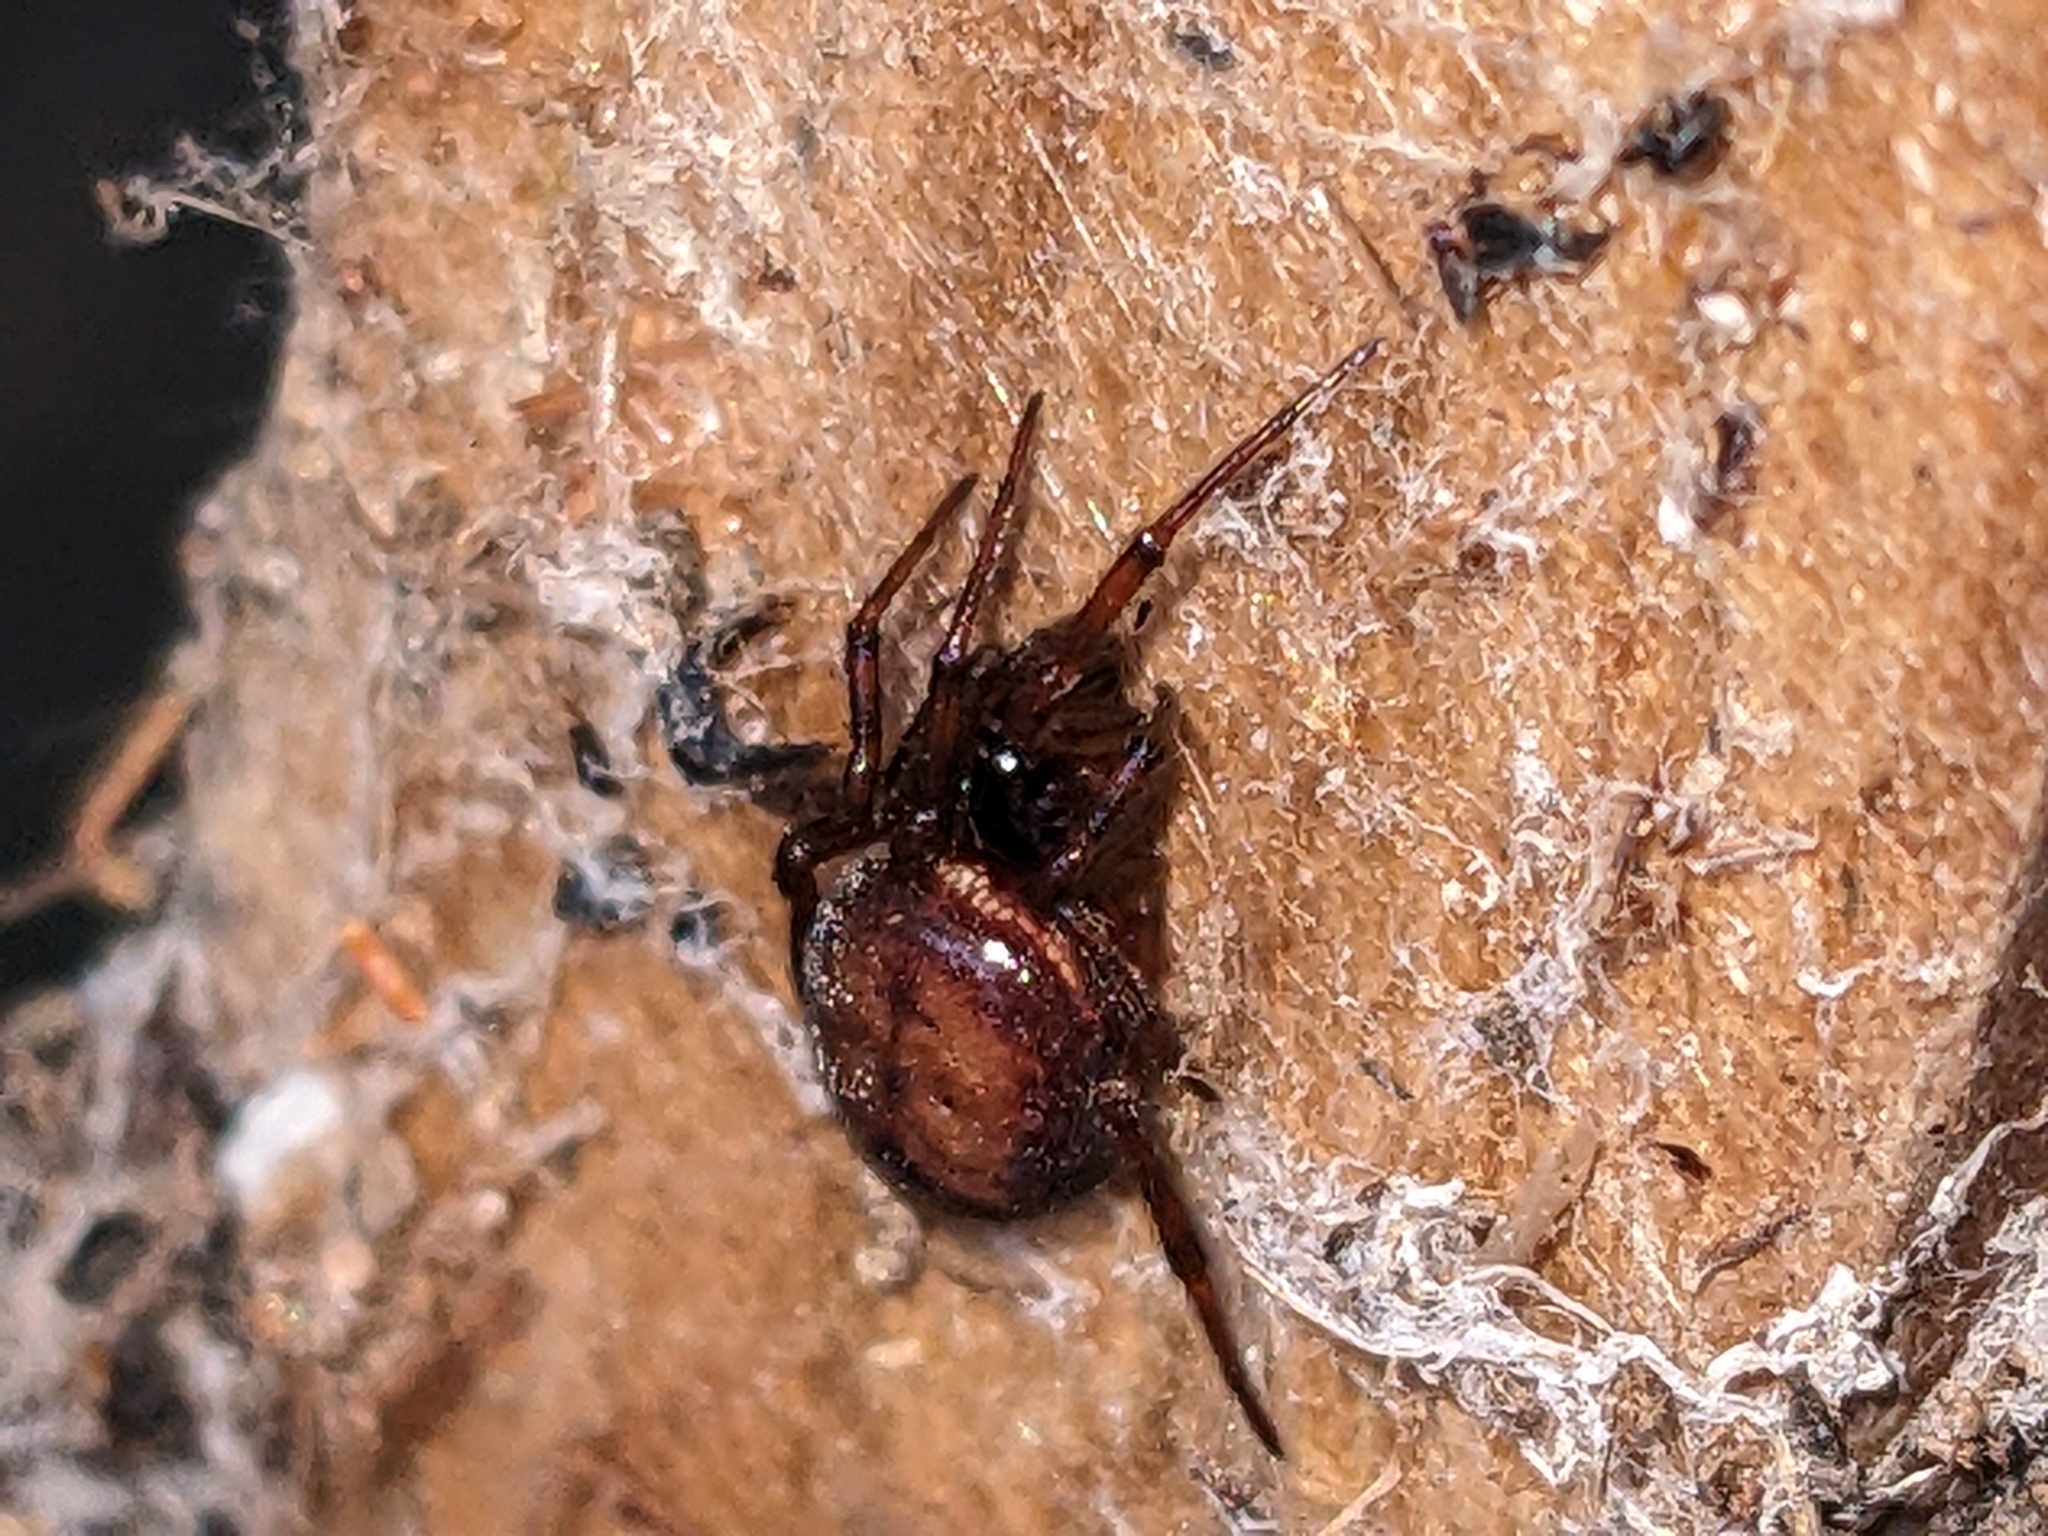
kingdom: Animalia
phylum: Arthropoda
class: Arachnida
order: Araneae
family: Theridiidae
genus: Steatoda
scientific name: Steatoda bipunctata
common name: False widow
